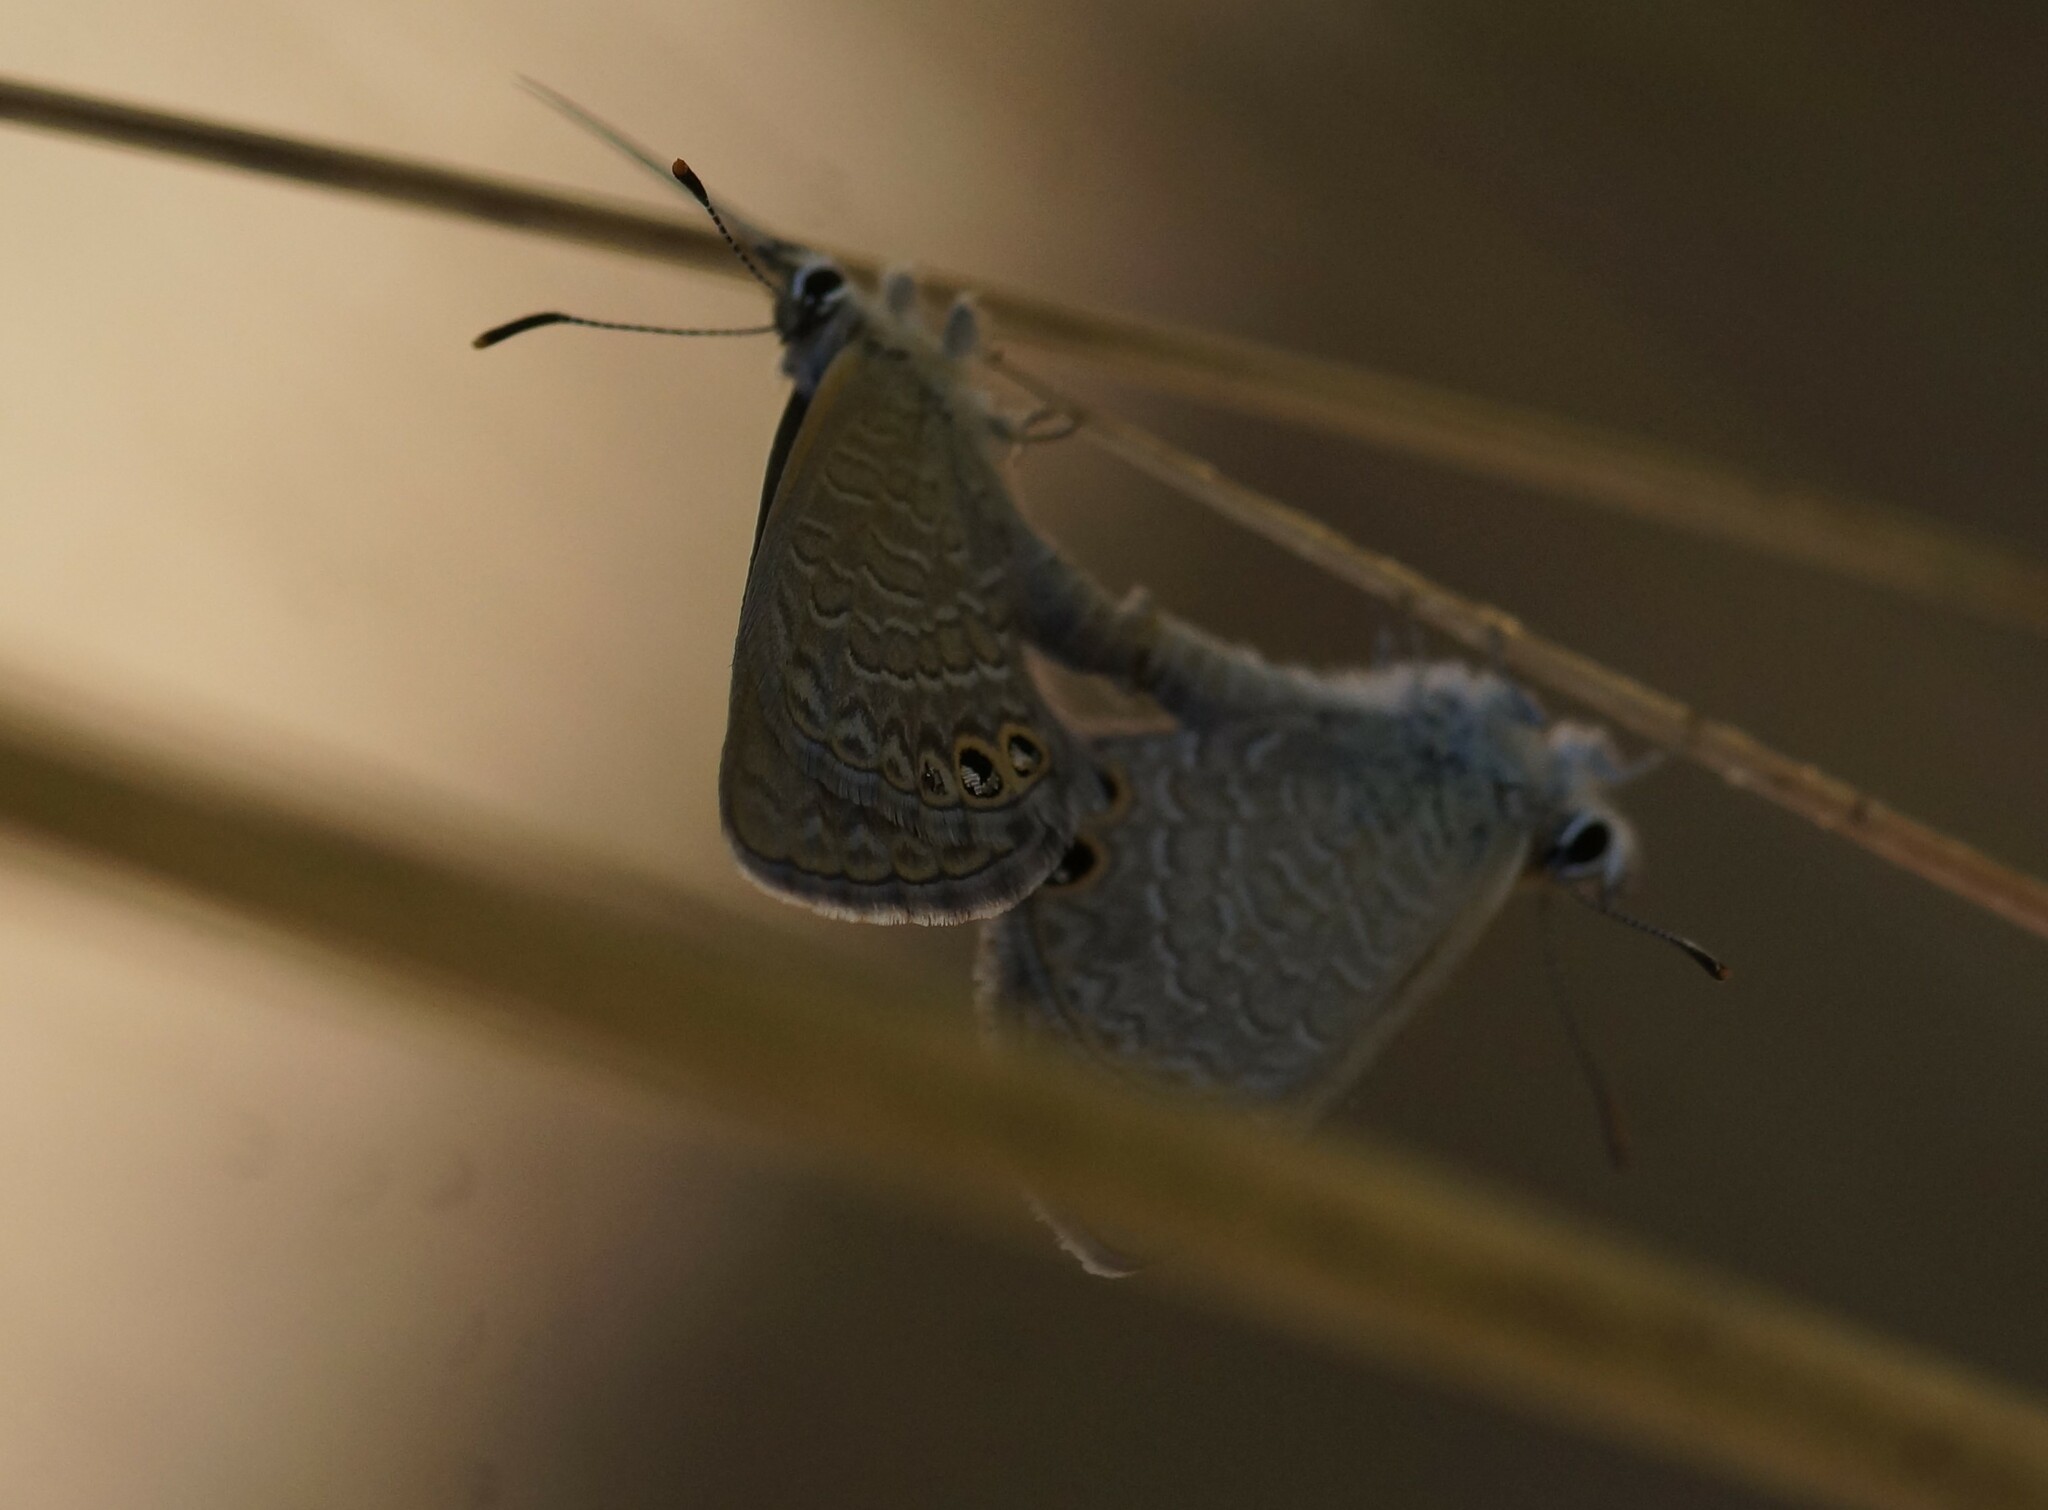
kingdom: Animalia
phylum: Arthropoda
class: Insecta
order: Lepidoptera
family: Lycaenidae
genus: Nacaduba
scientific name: Nacaduba biocellata
